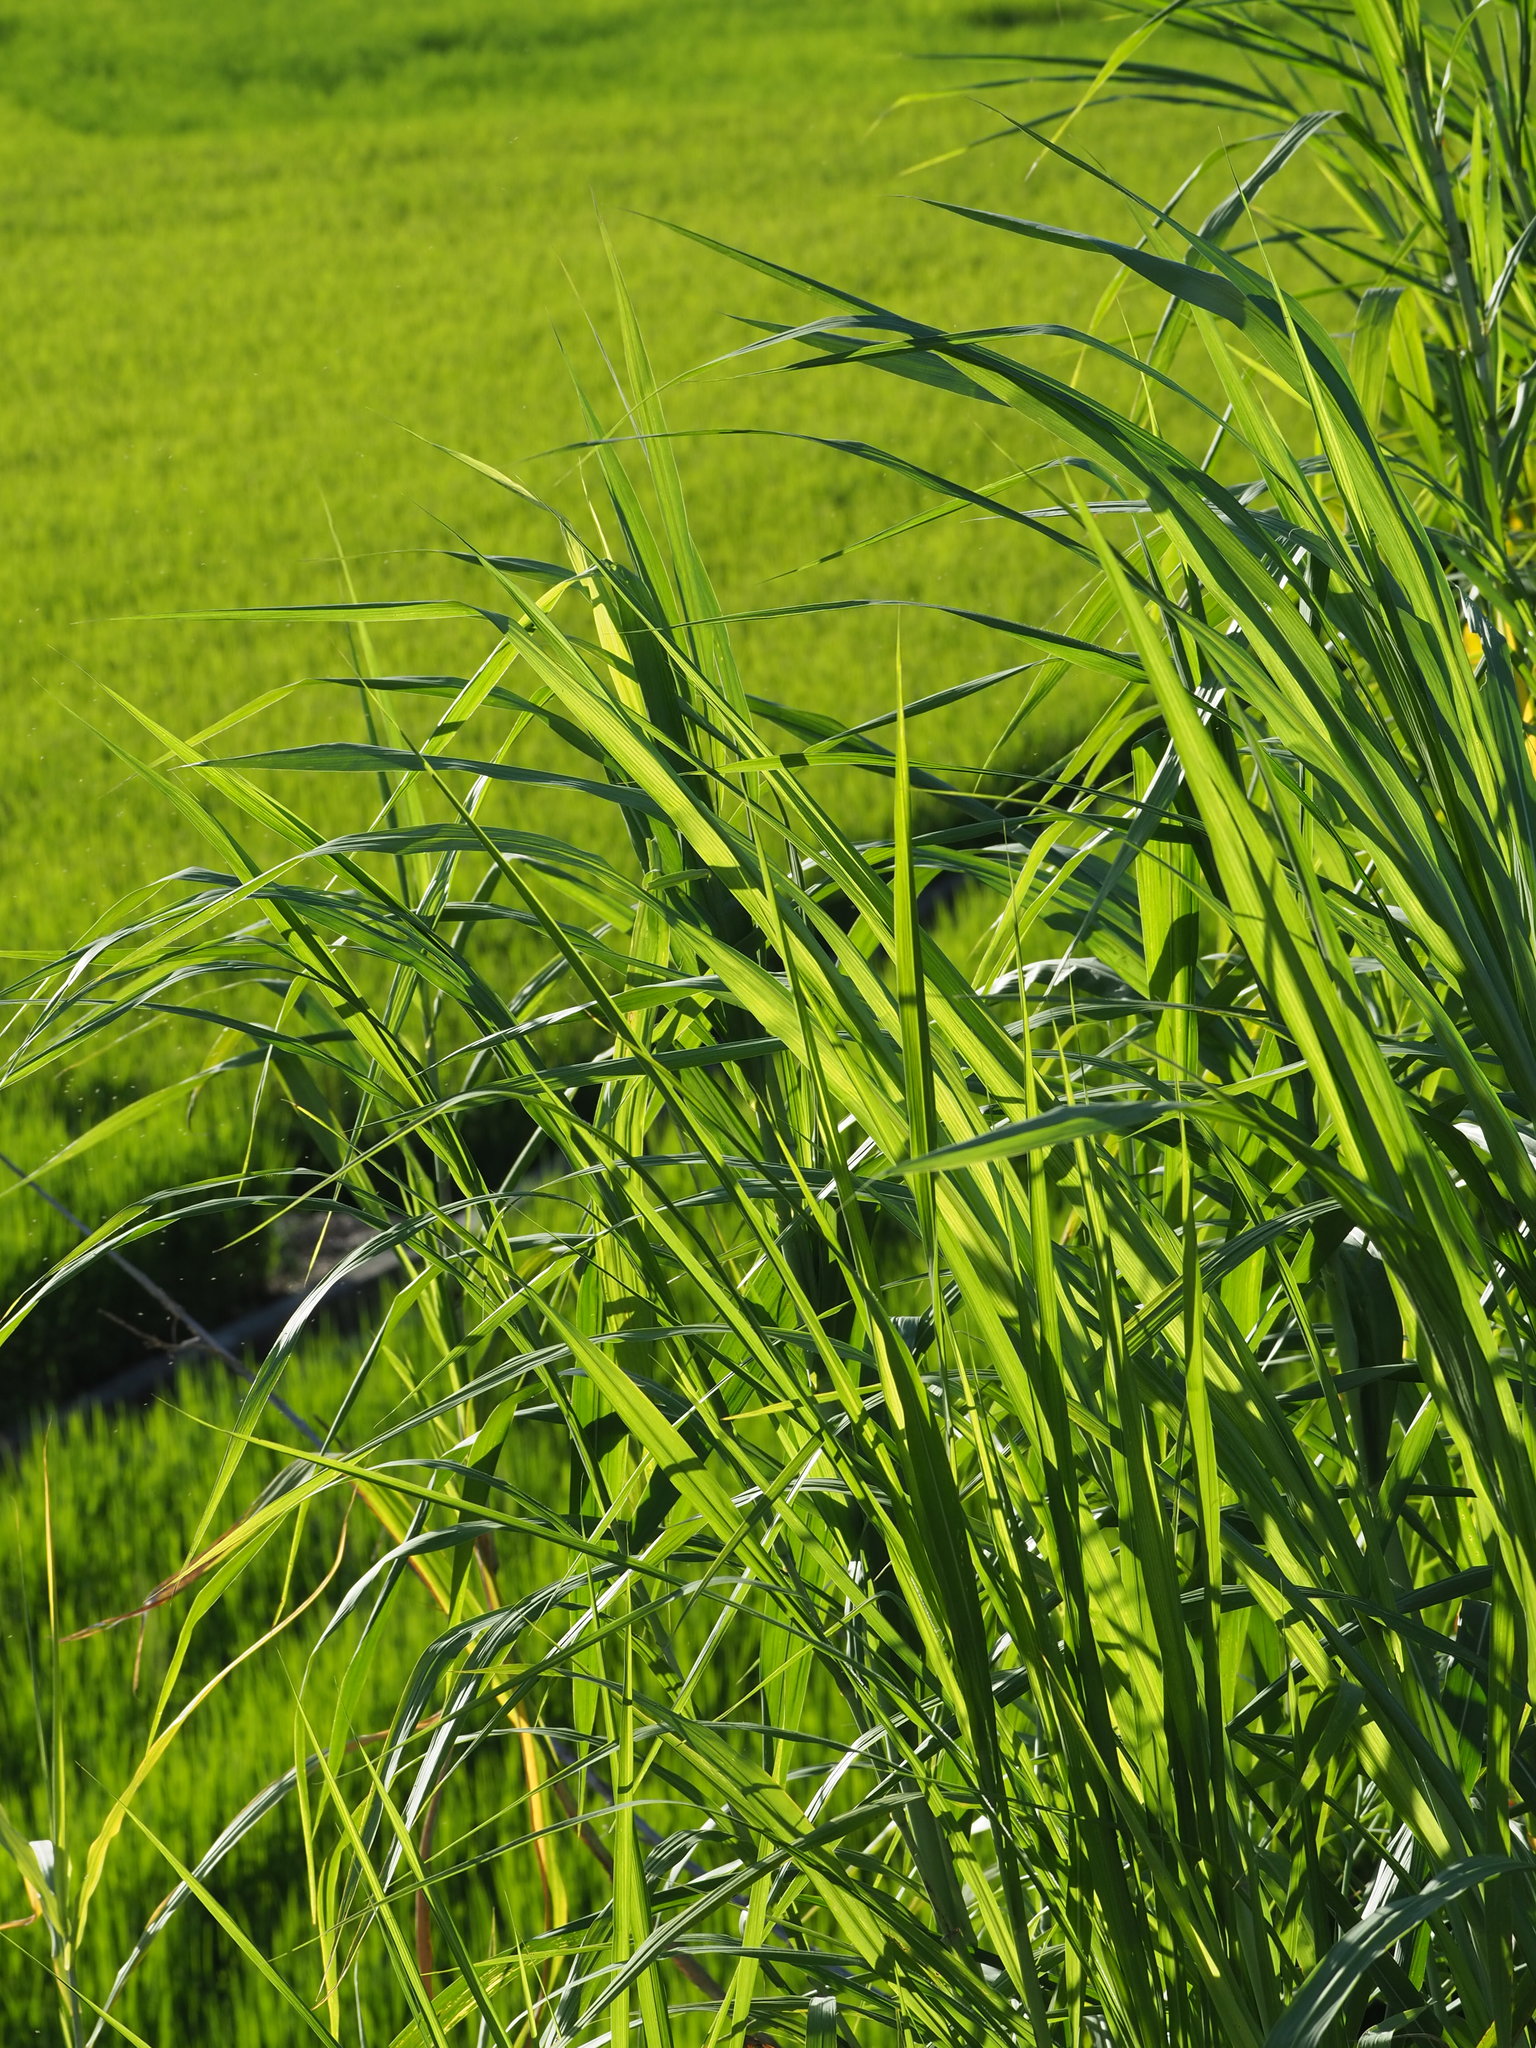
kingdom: Plantae
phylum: Tracheophyta
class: Liliopsida
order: Poales
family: Poaceae
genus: Cenchrus
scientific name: Cenchrus purpureus
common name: Elephant grass
